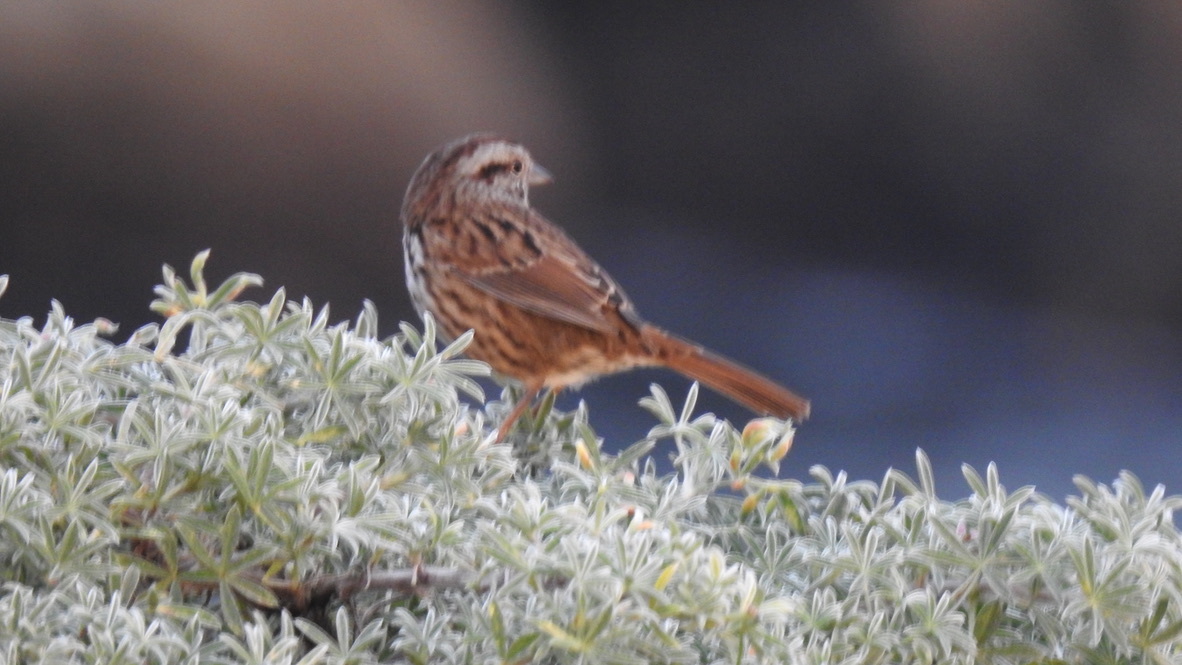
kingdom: Animalia
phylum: Chordata
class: Aves
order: Passeriformes
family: Passerellidae
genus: Melospiza
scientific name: Melospiza melodia
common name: Song sparrow
